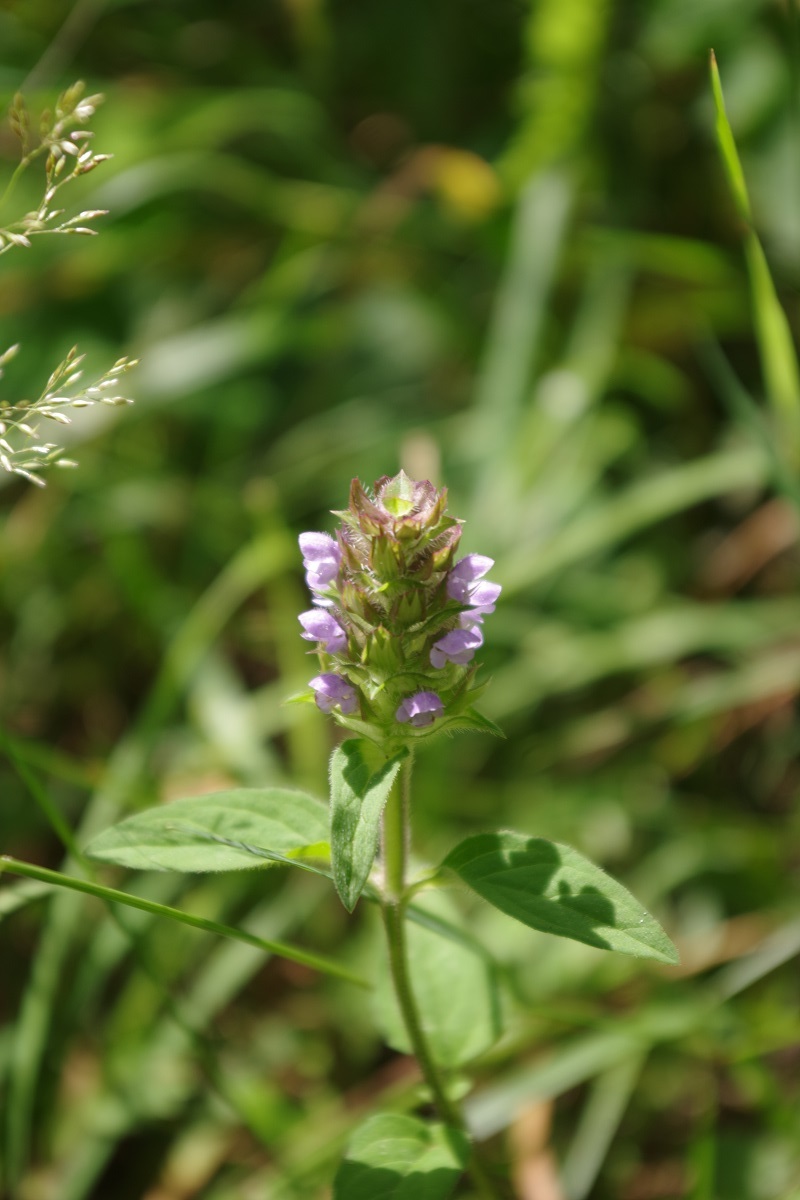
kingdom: Plantae
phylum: Tracheophyta
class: Magnoliopsida
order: Lamiales
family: Lamiaceae
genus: Prunella
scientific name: Prunella vulgaris
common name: Heal-all
